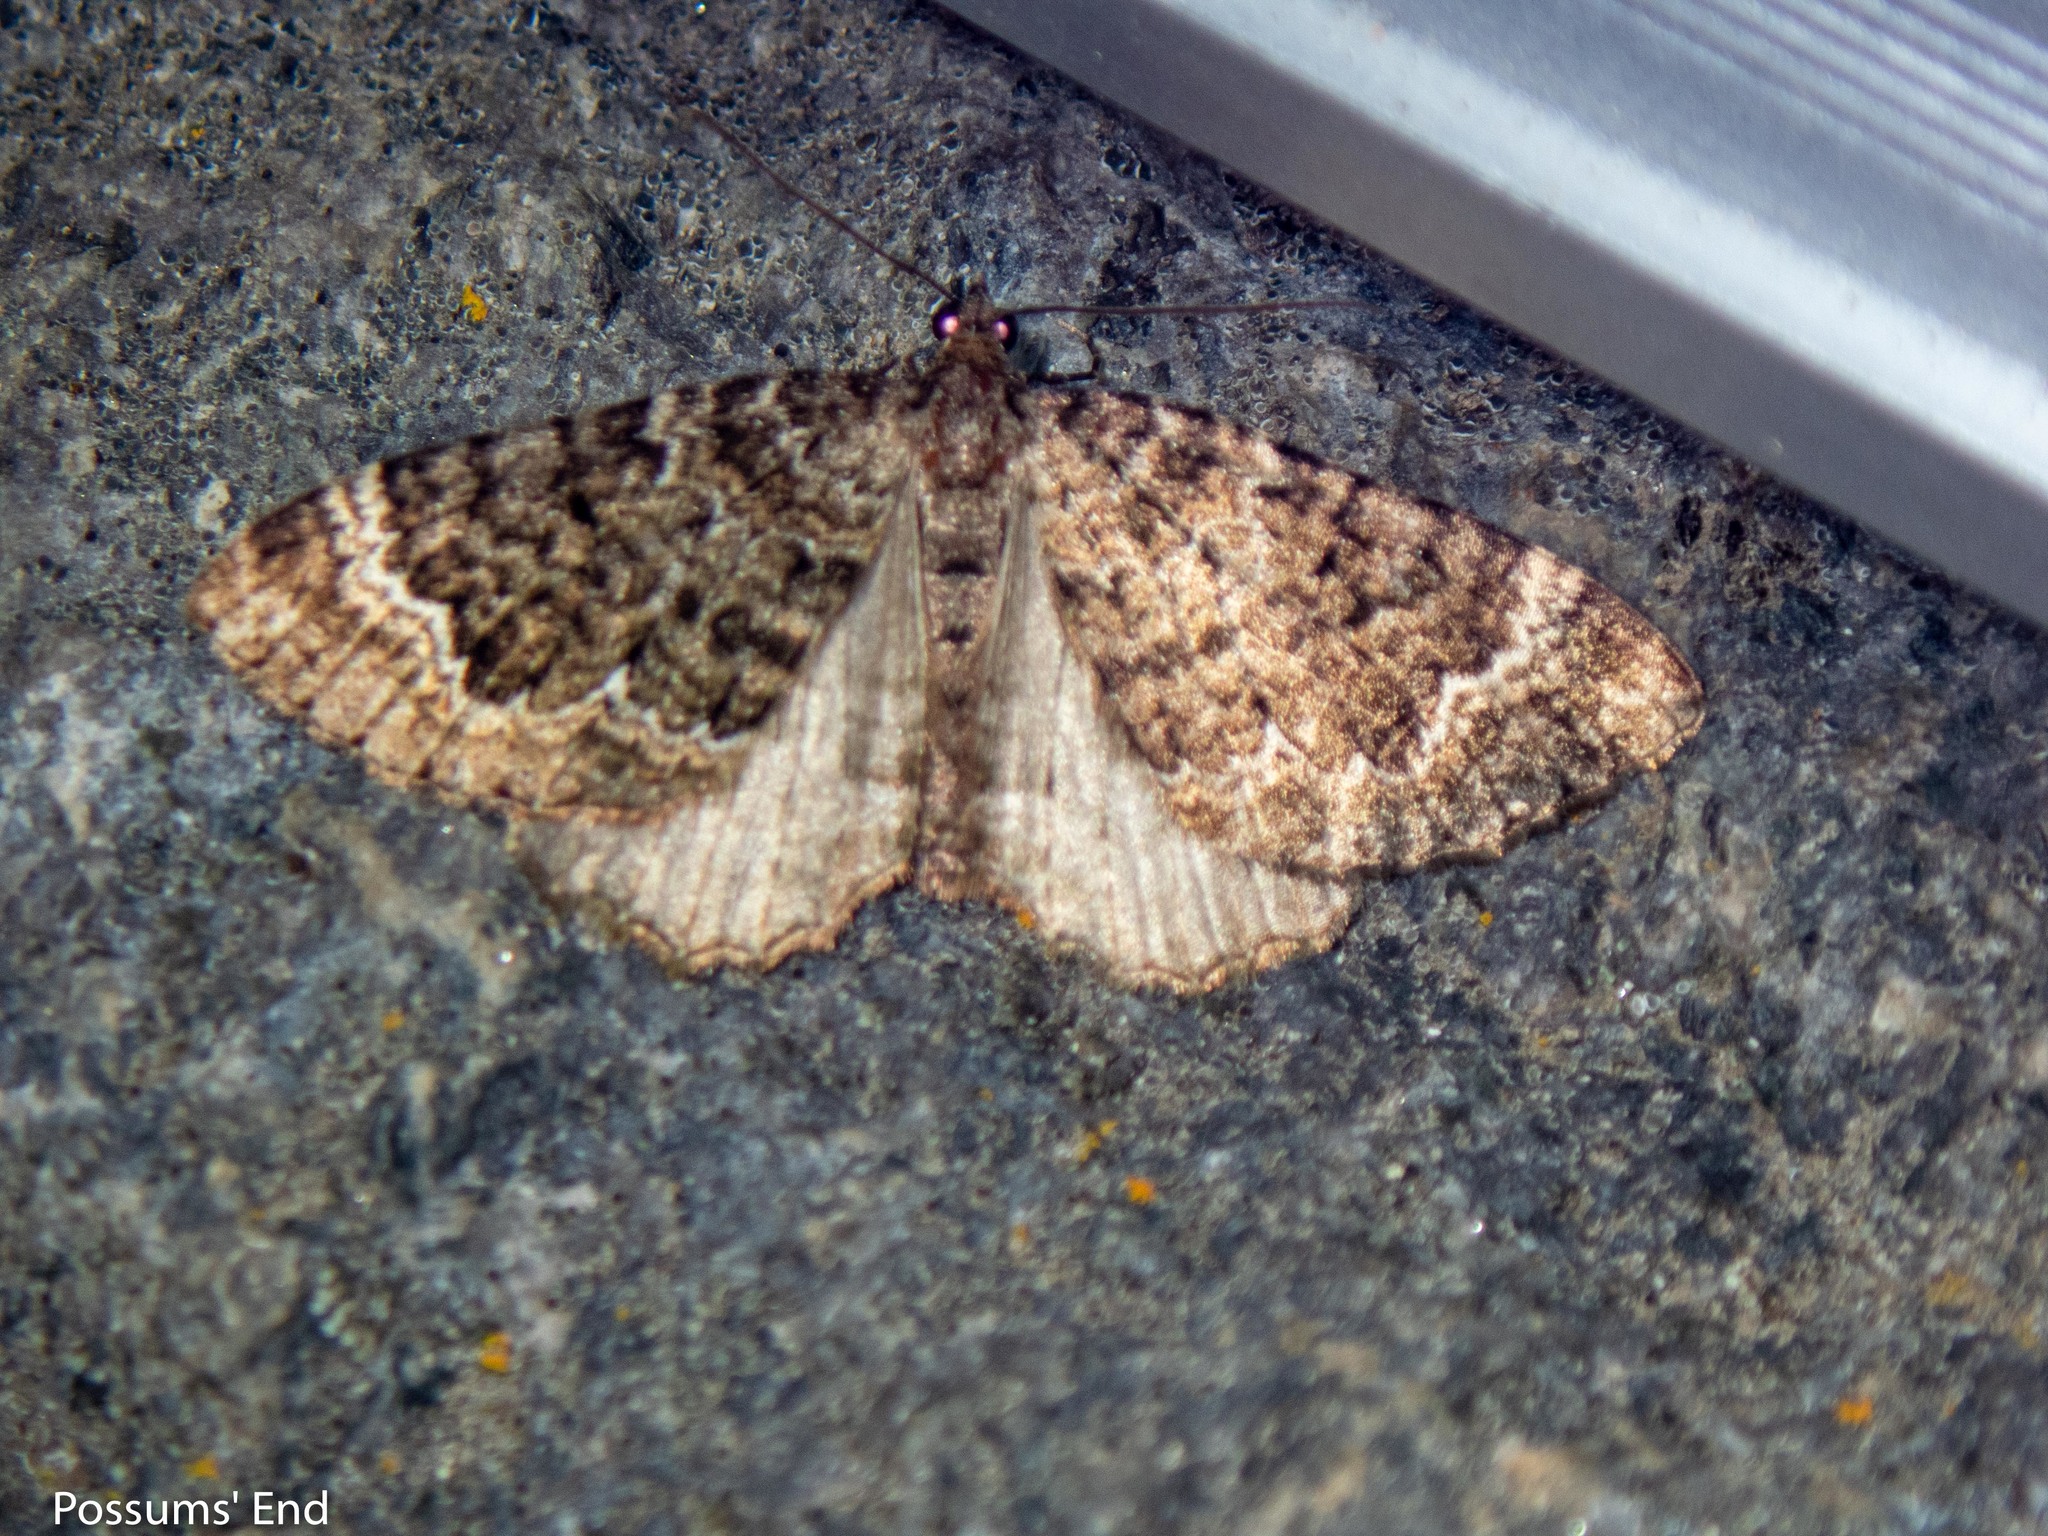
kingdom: Animalia
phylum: Arthropoda
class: Insecta
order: Lepidoptera
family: Geometridae
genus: Asaphodes
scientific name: Asaphodes chionogramma
